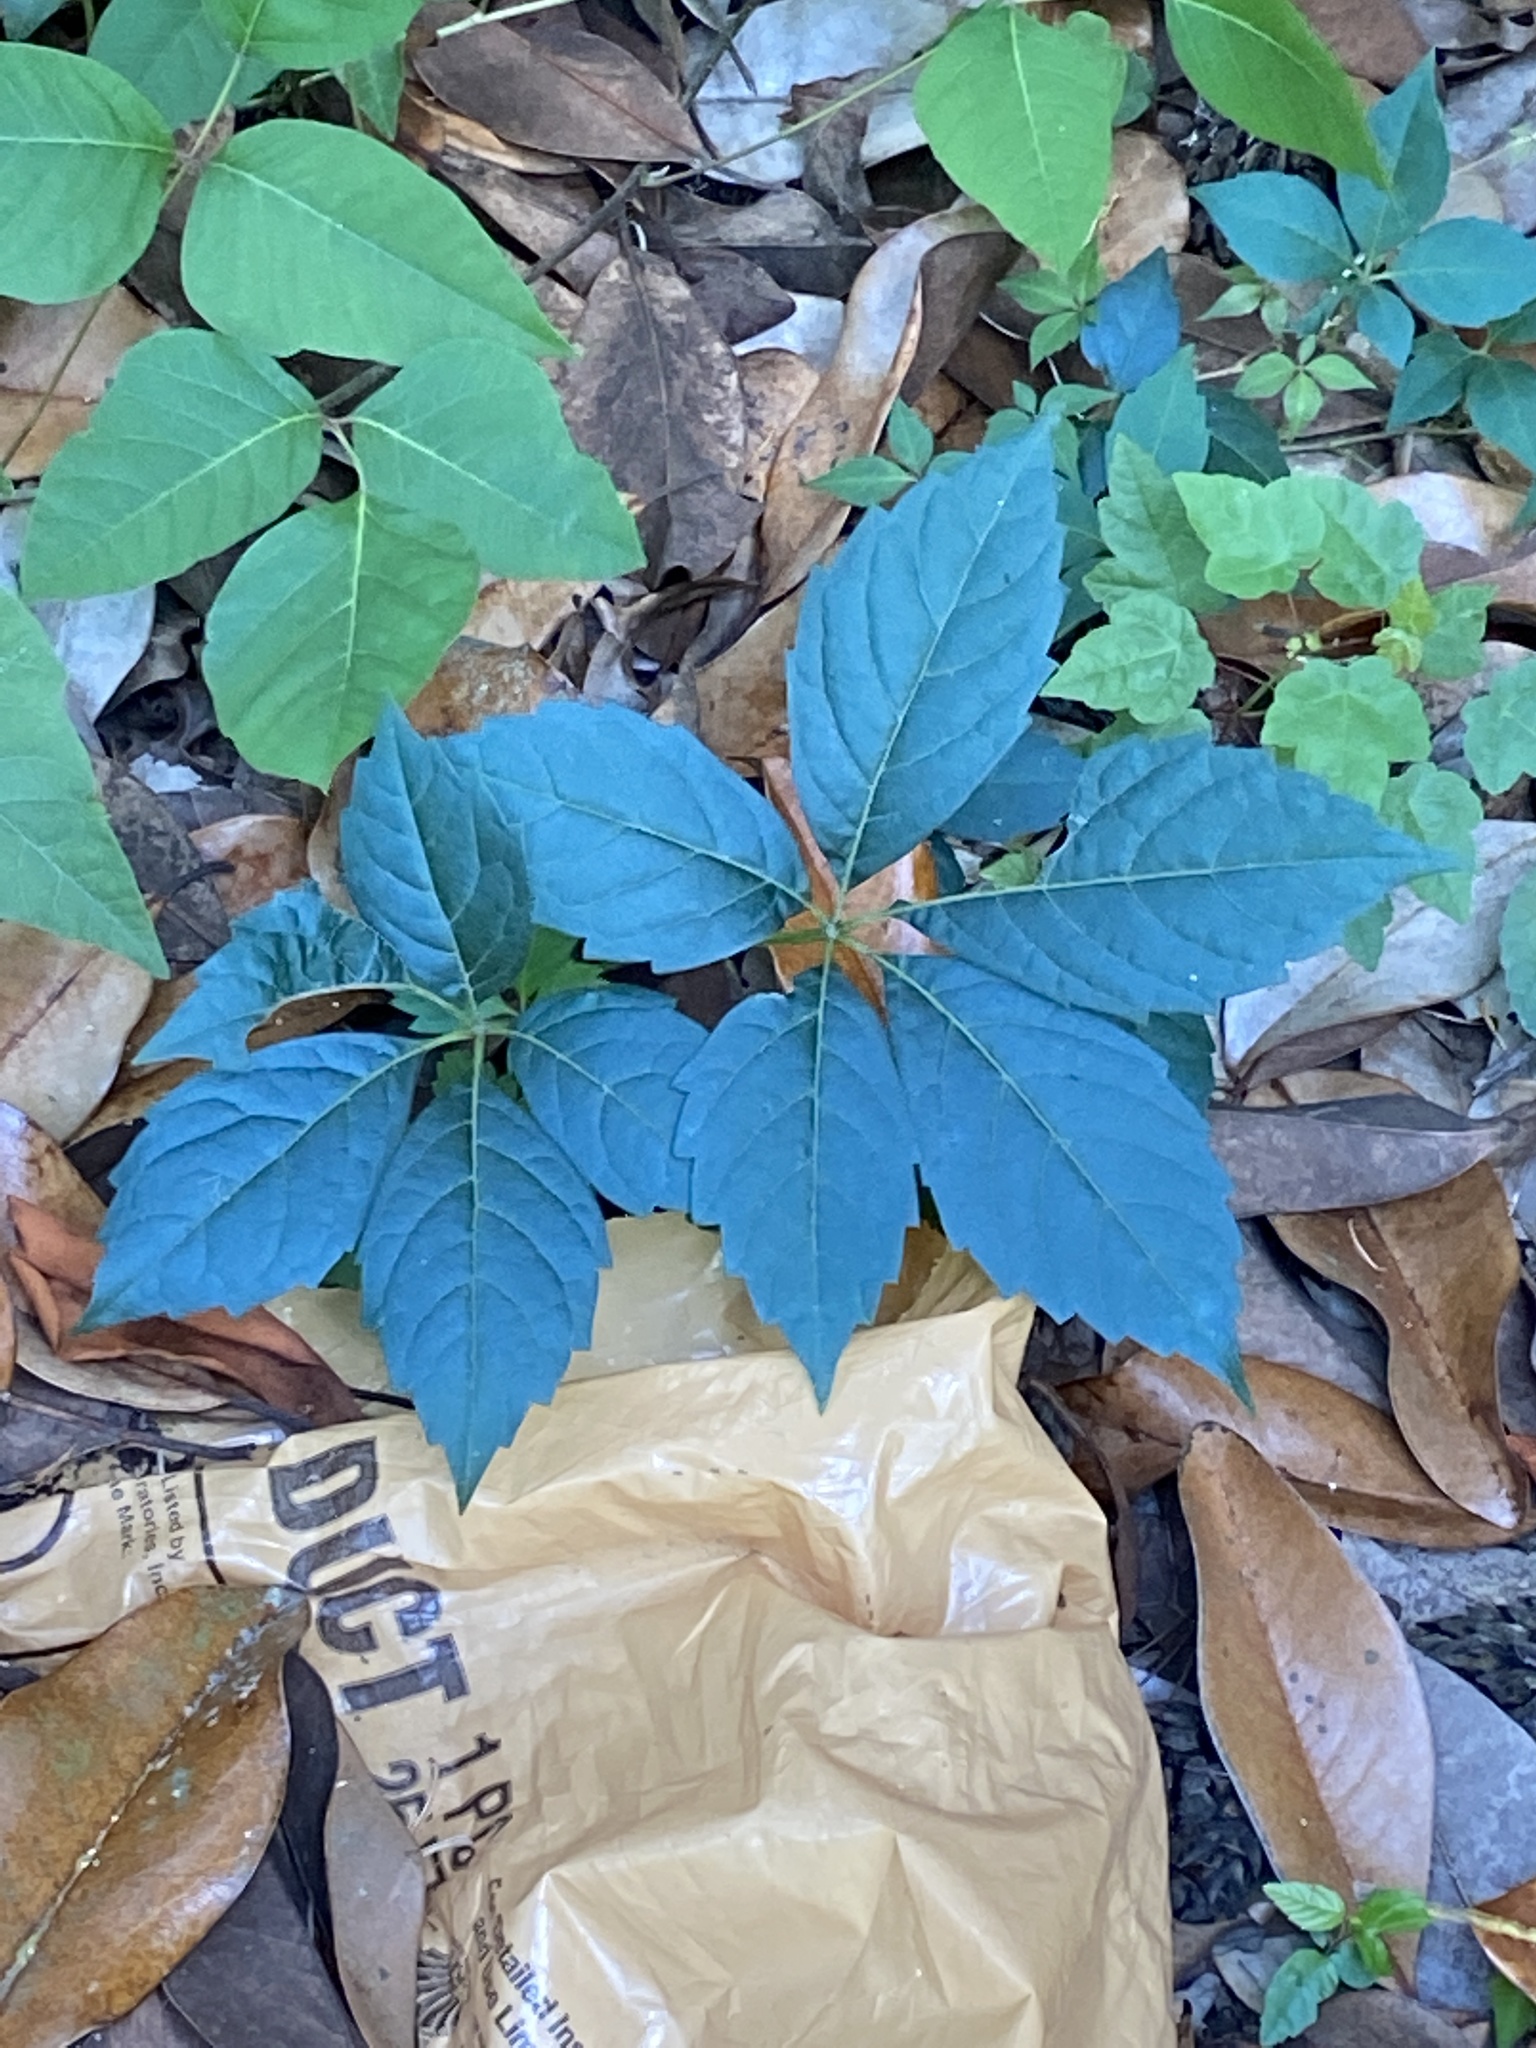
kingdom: Plantae
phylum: Tracheophyta
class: Magnoliopsida
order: Vitales
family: Vitaceae
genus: Parthenocissus
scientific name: Parthenocissus quinquefolia
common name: Virginia-creeper
